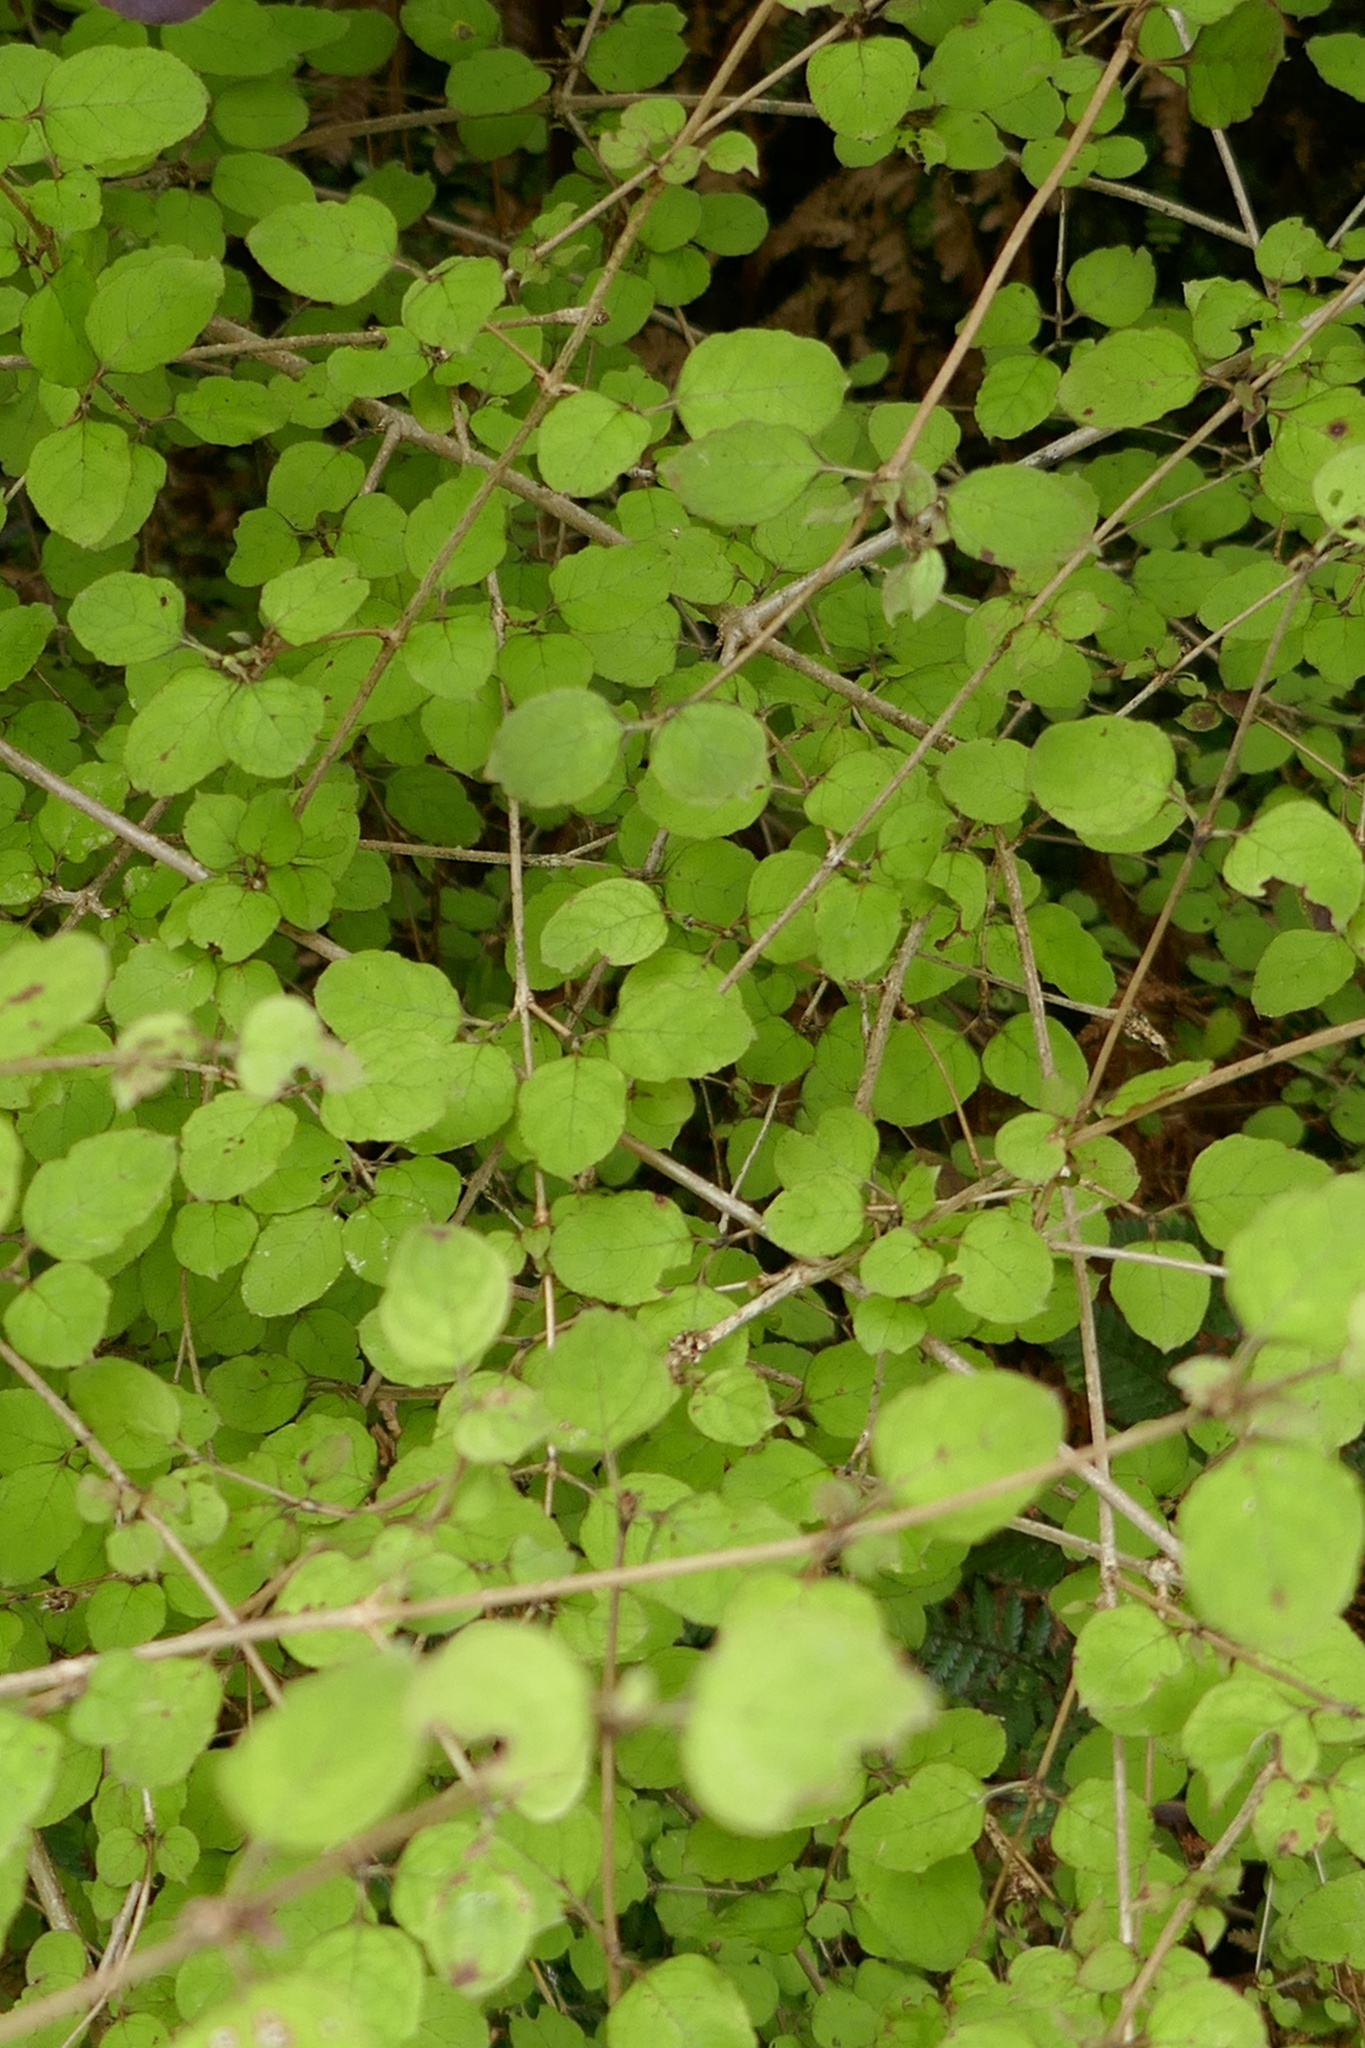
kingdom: Plantae
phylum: Tracheophyta
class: Magnoliopsida
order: Gentianales
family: Rubiaceae
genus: Coprosma
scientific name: Coprosma rotundifolia
